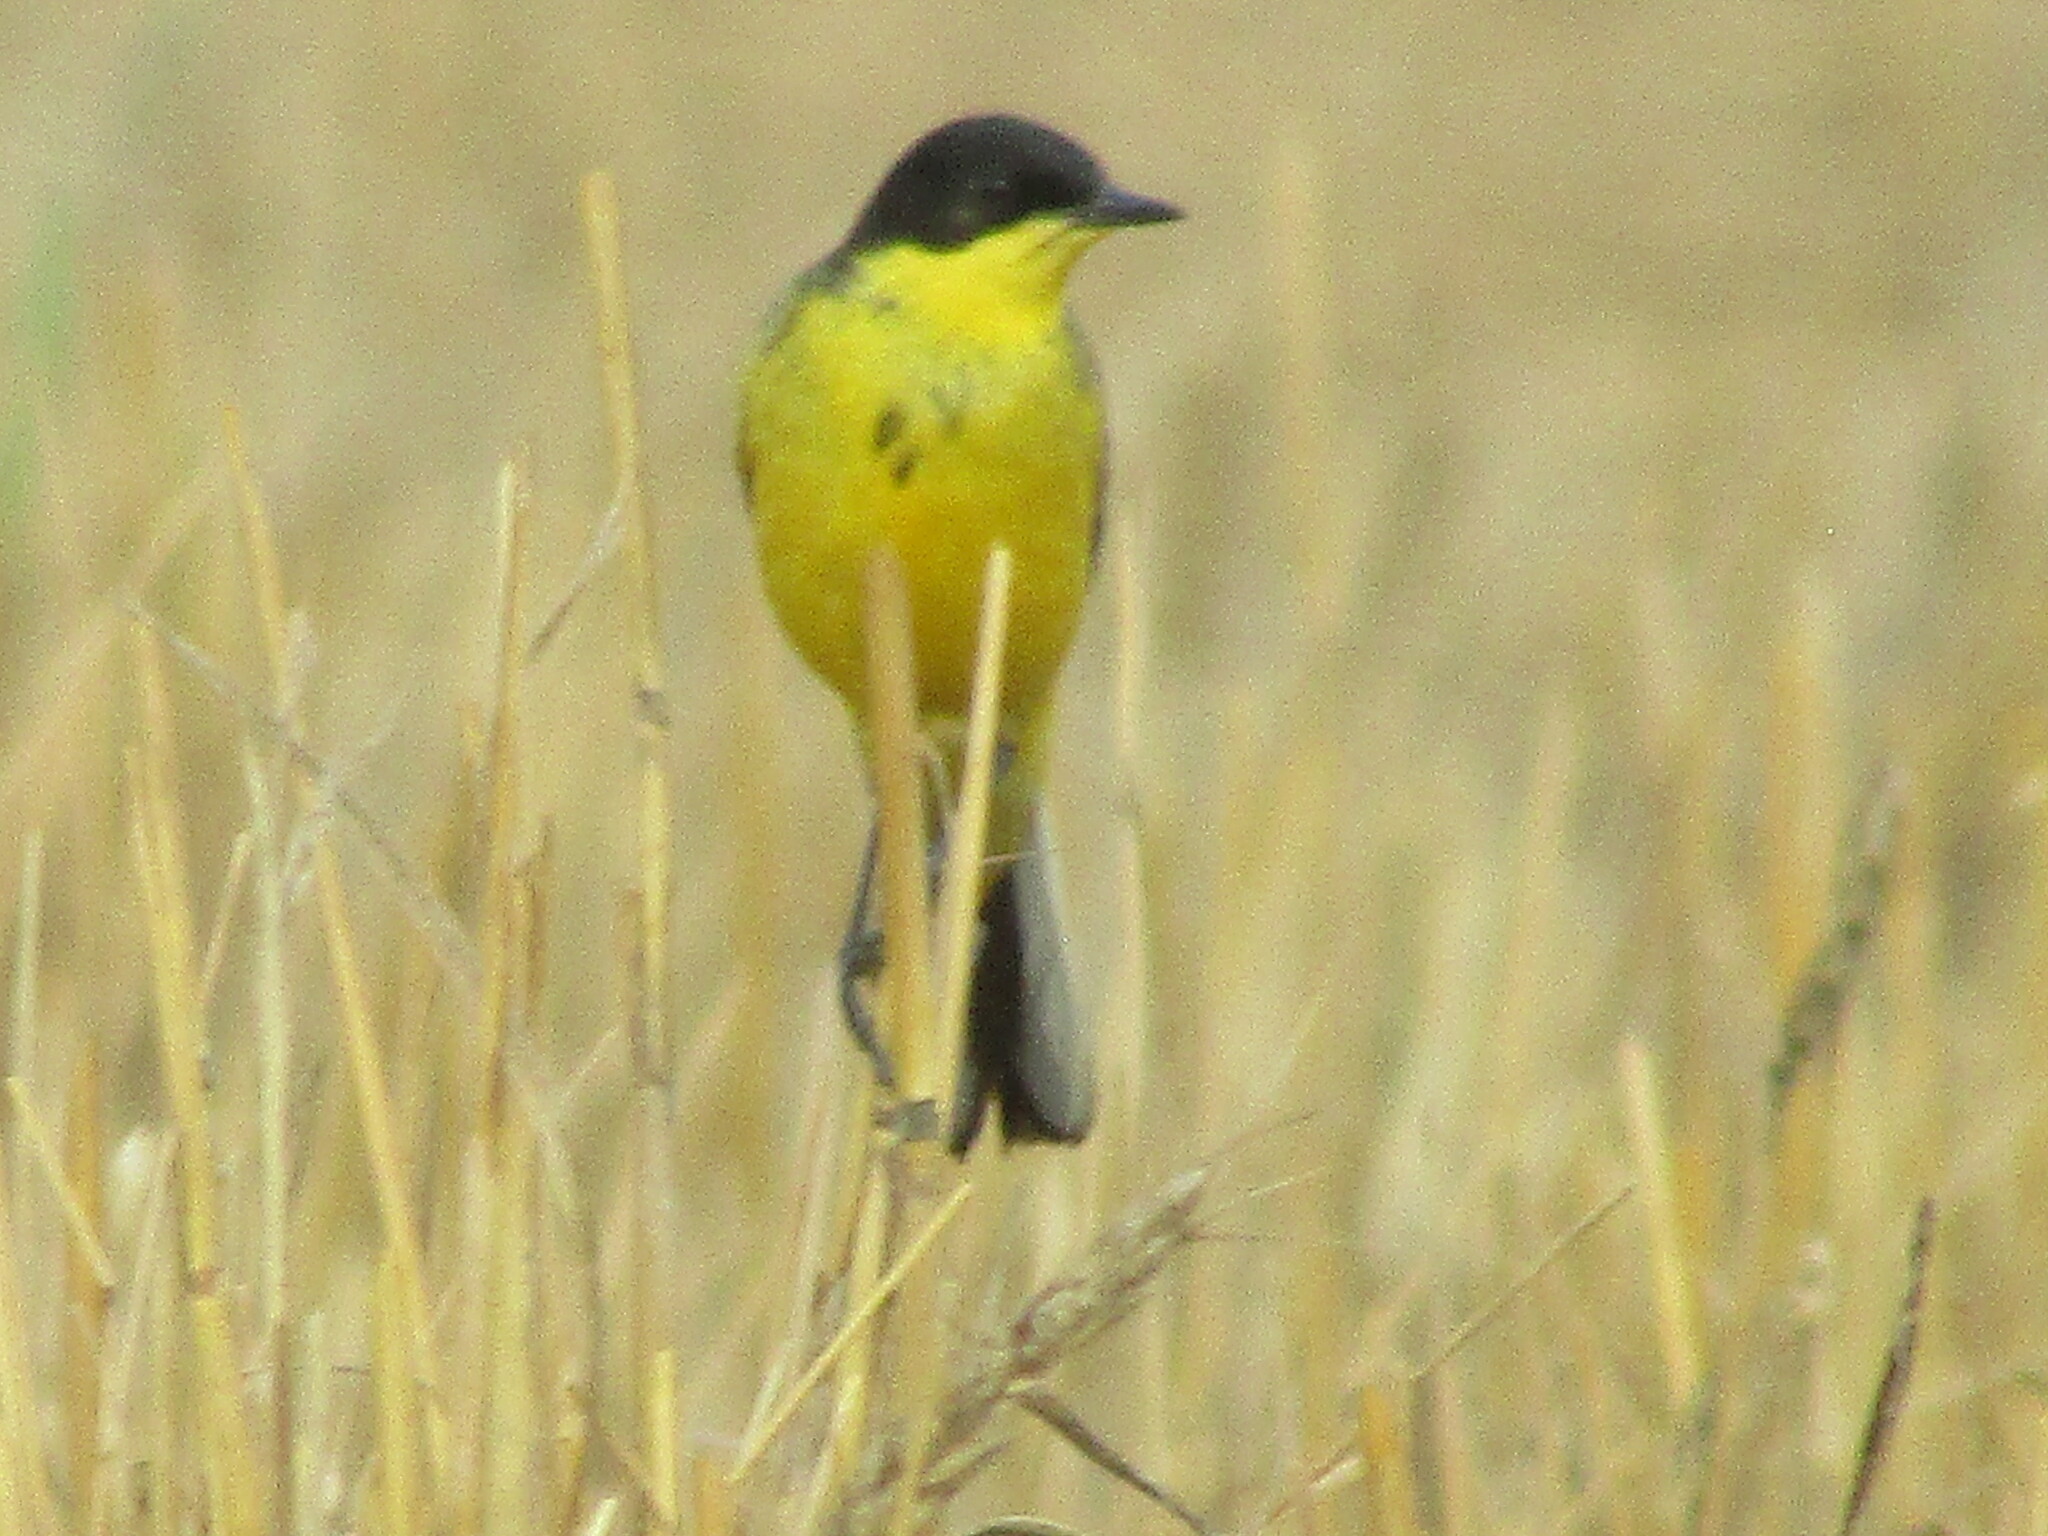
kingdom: Animalia
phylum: Chordata
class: Aves
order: Passeriformes
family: Motacillidae
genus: Motacilla
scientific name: Motacilla flava
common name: Western yellow wagtail
